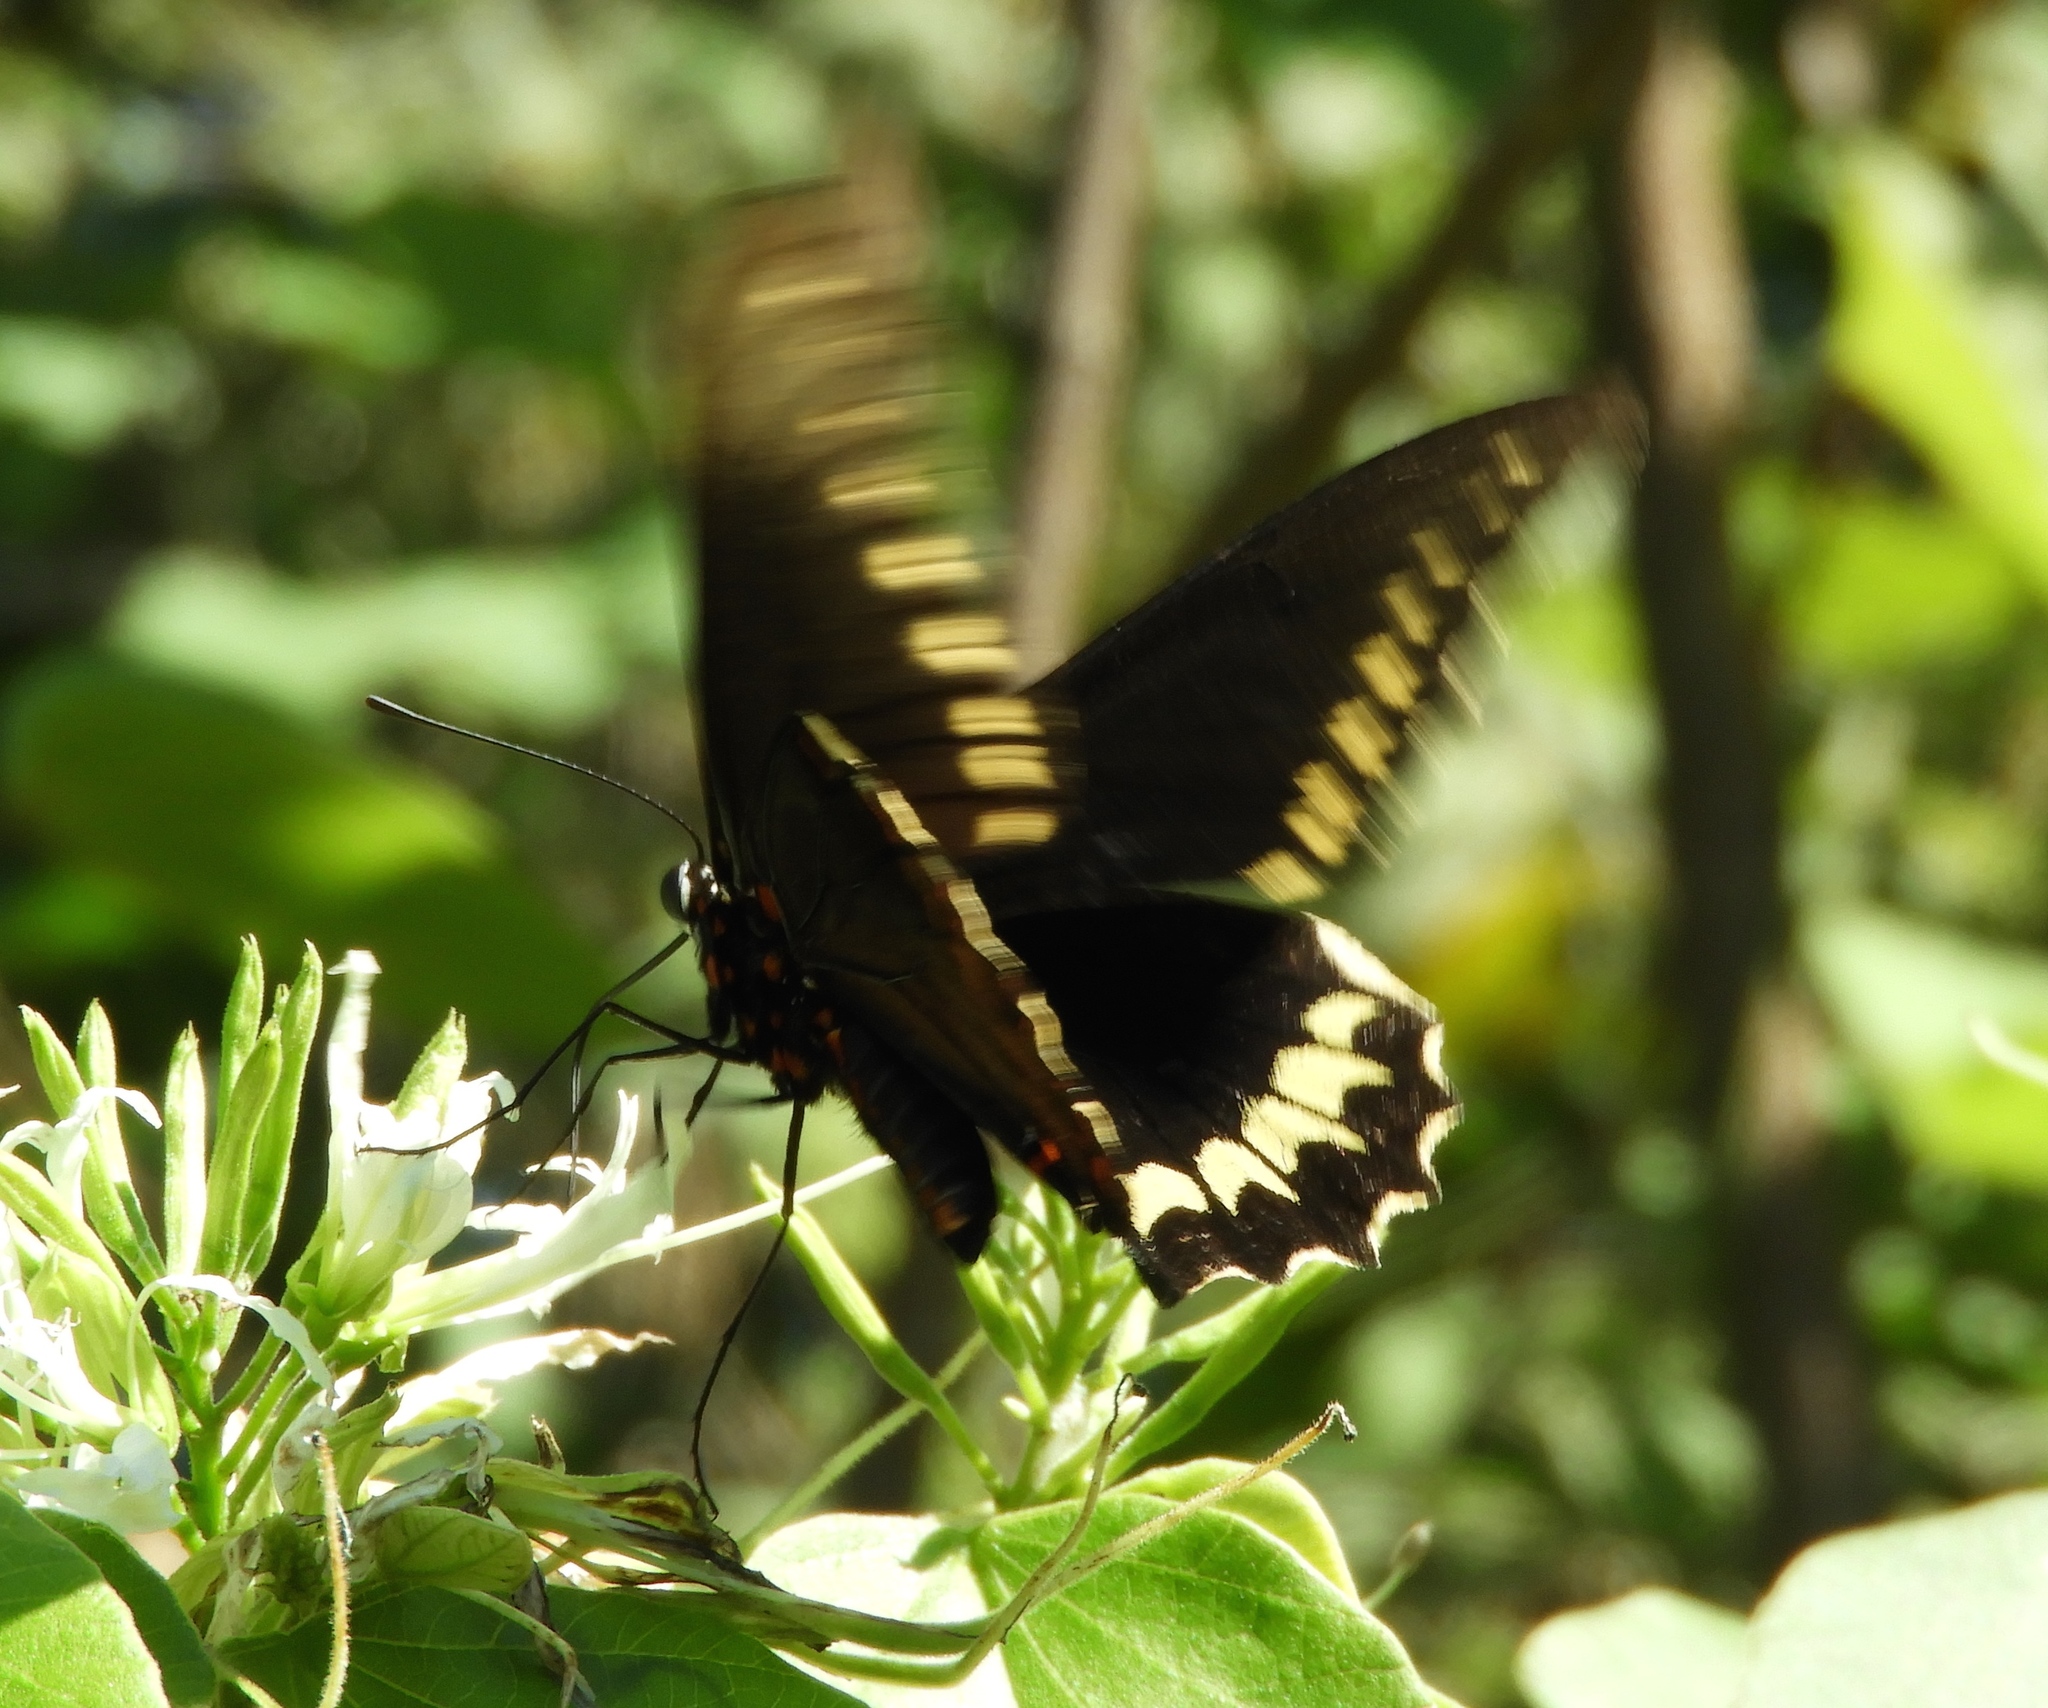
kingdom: Animalia
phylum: Arthropoda
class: Insecta
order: Lepidoptera
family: Papilionidae
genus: Battus
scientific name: Battus polydamas
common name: Polydamas swallowtail
